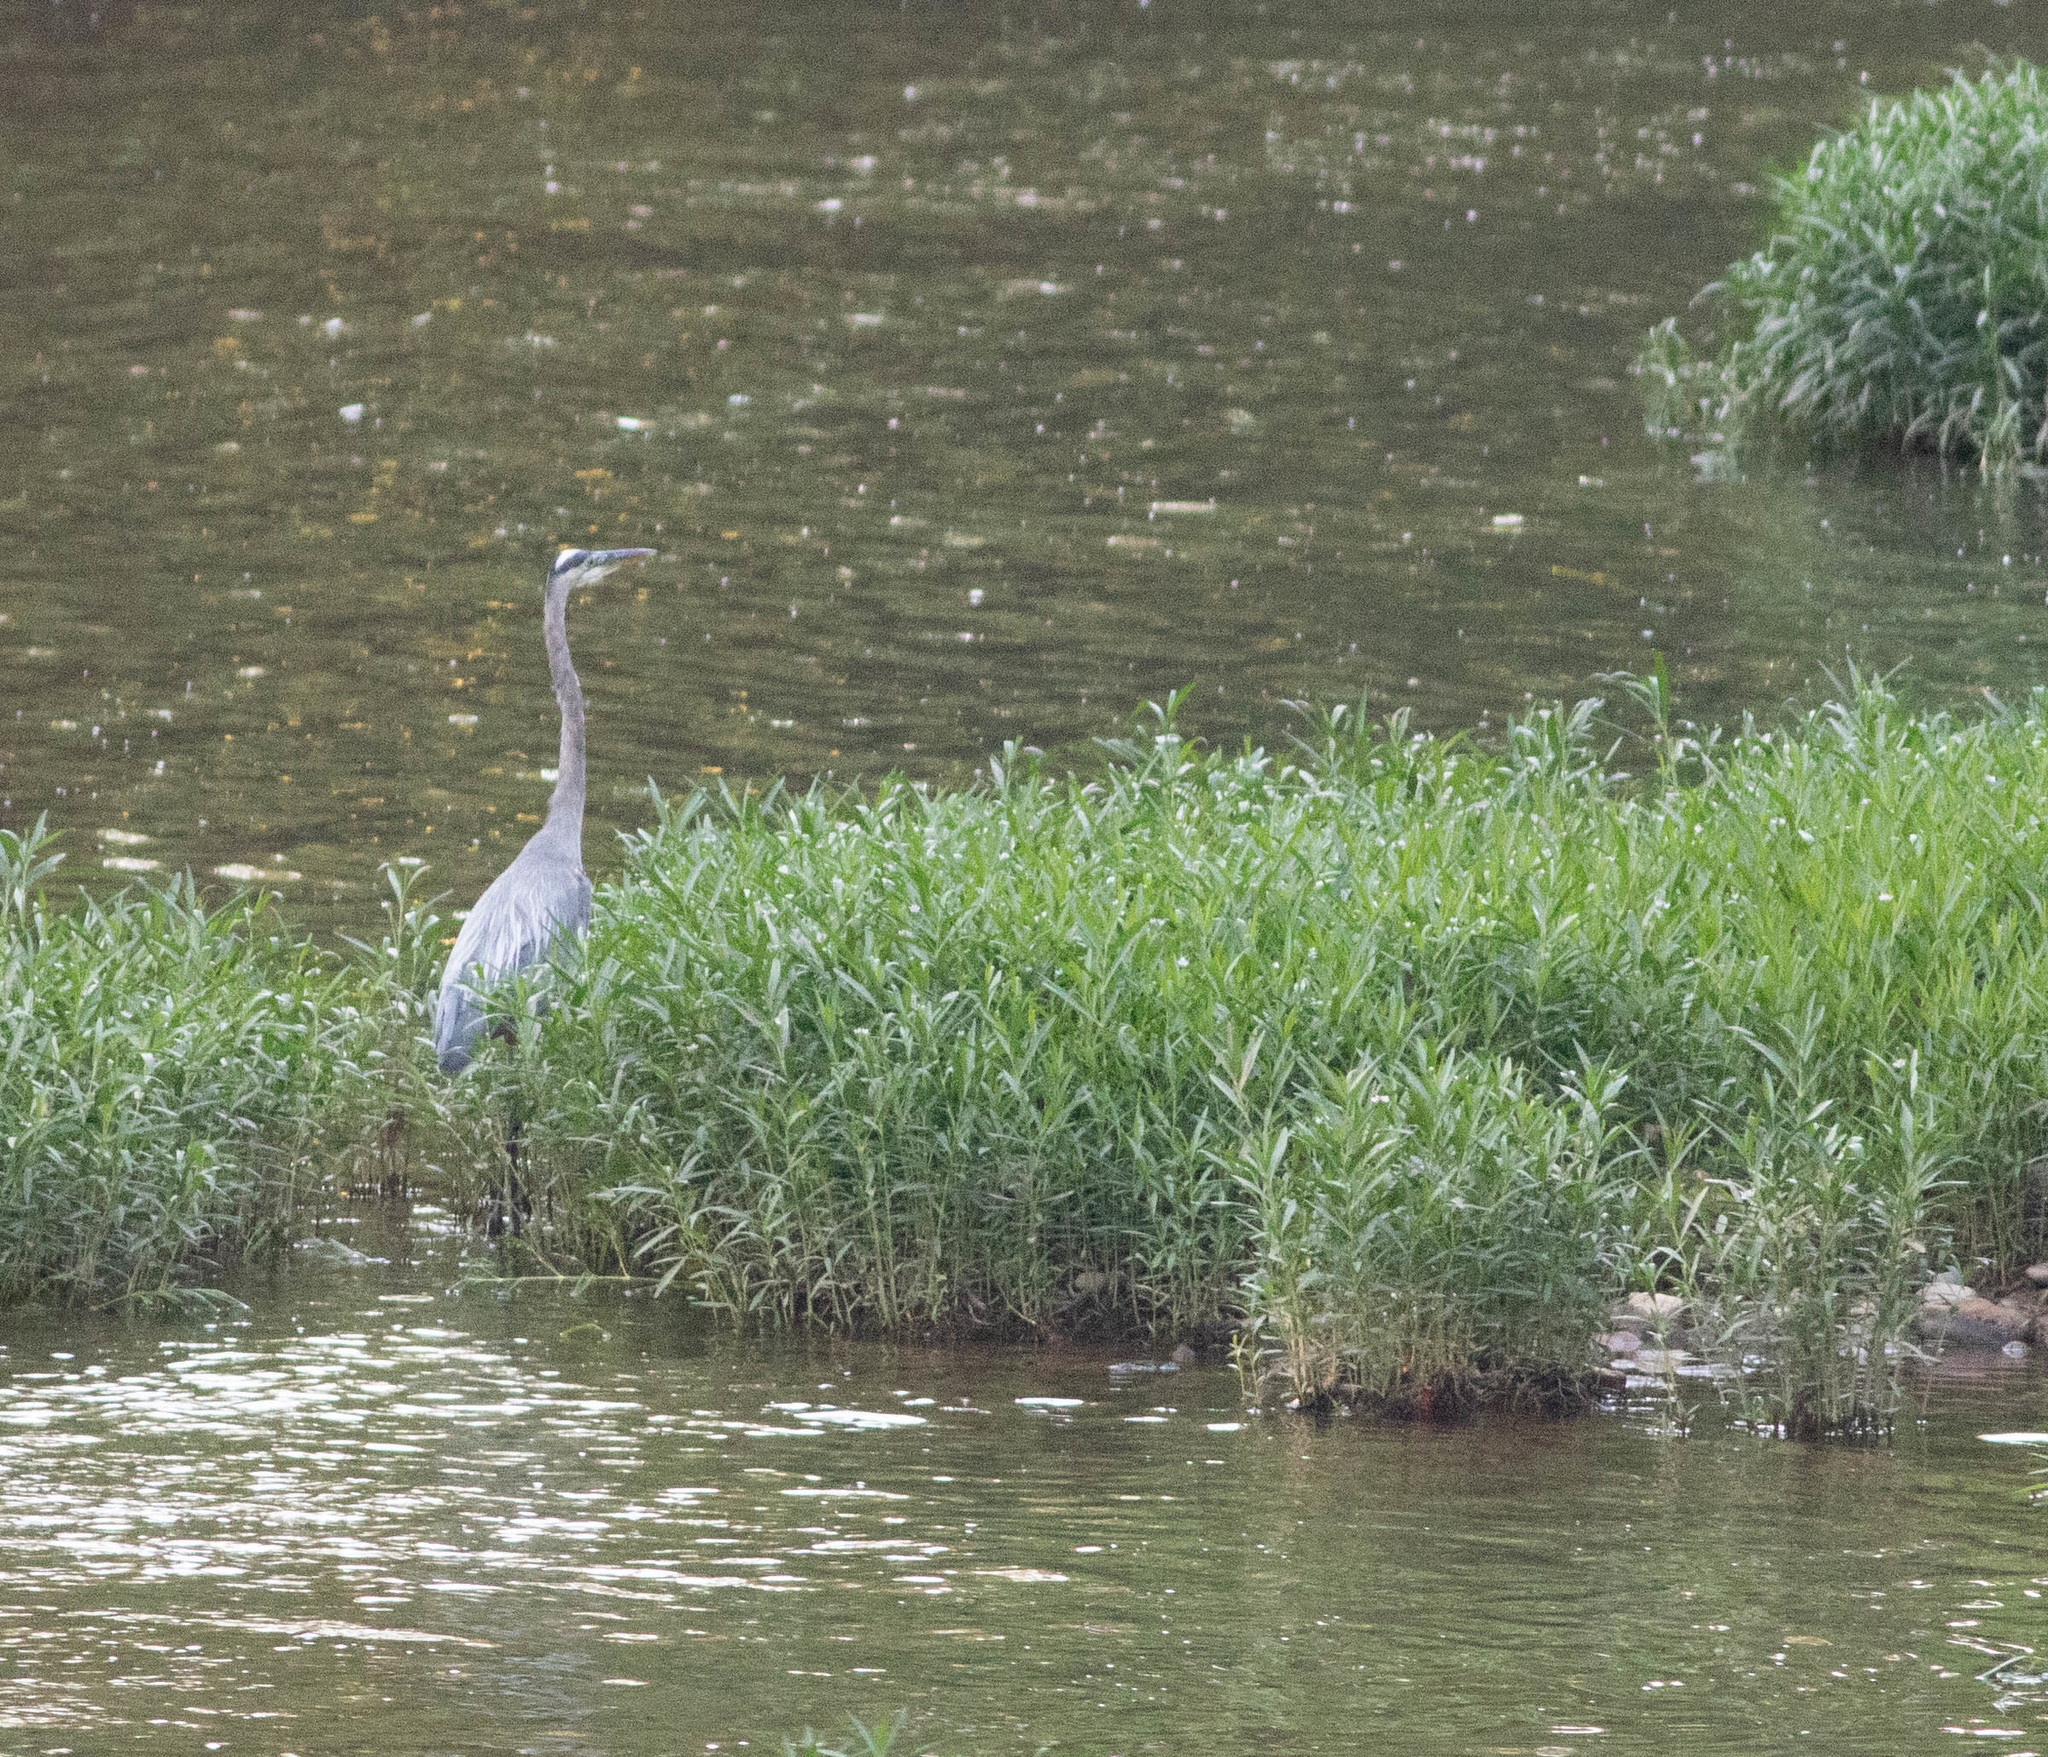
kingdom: Animalia
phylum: Chordata
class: Aves
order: Pelecaniformes
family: Ardeidae
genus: Ardea
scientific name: Ardea herodias
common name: Great blue heron
